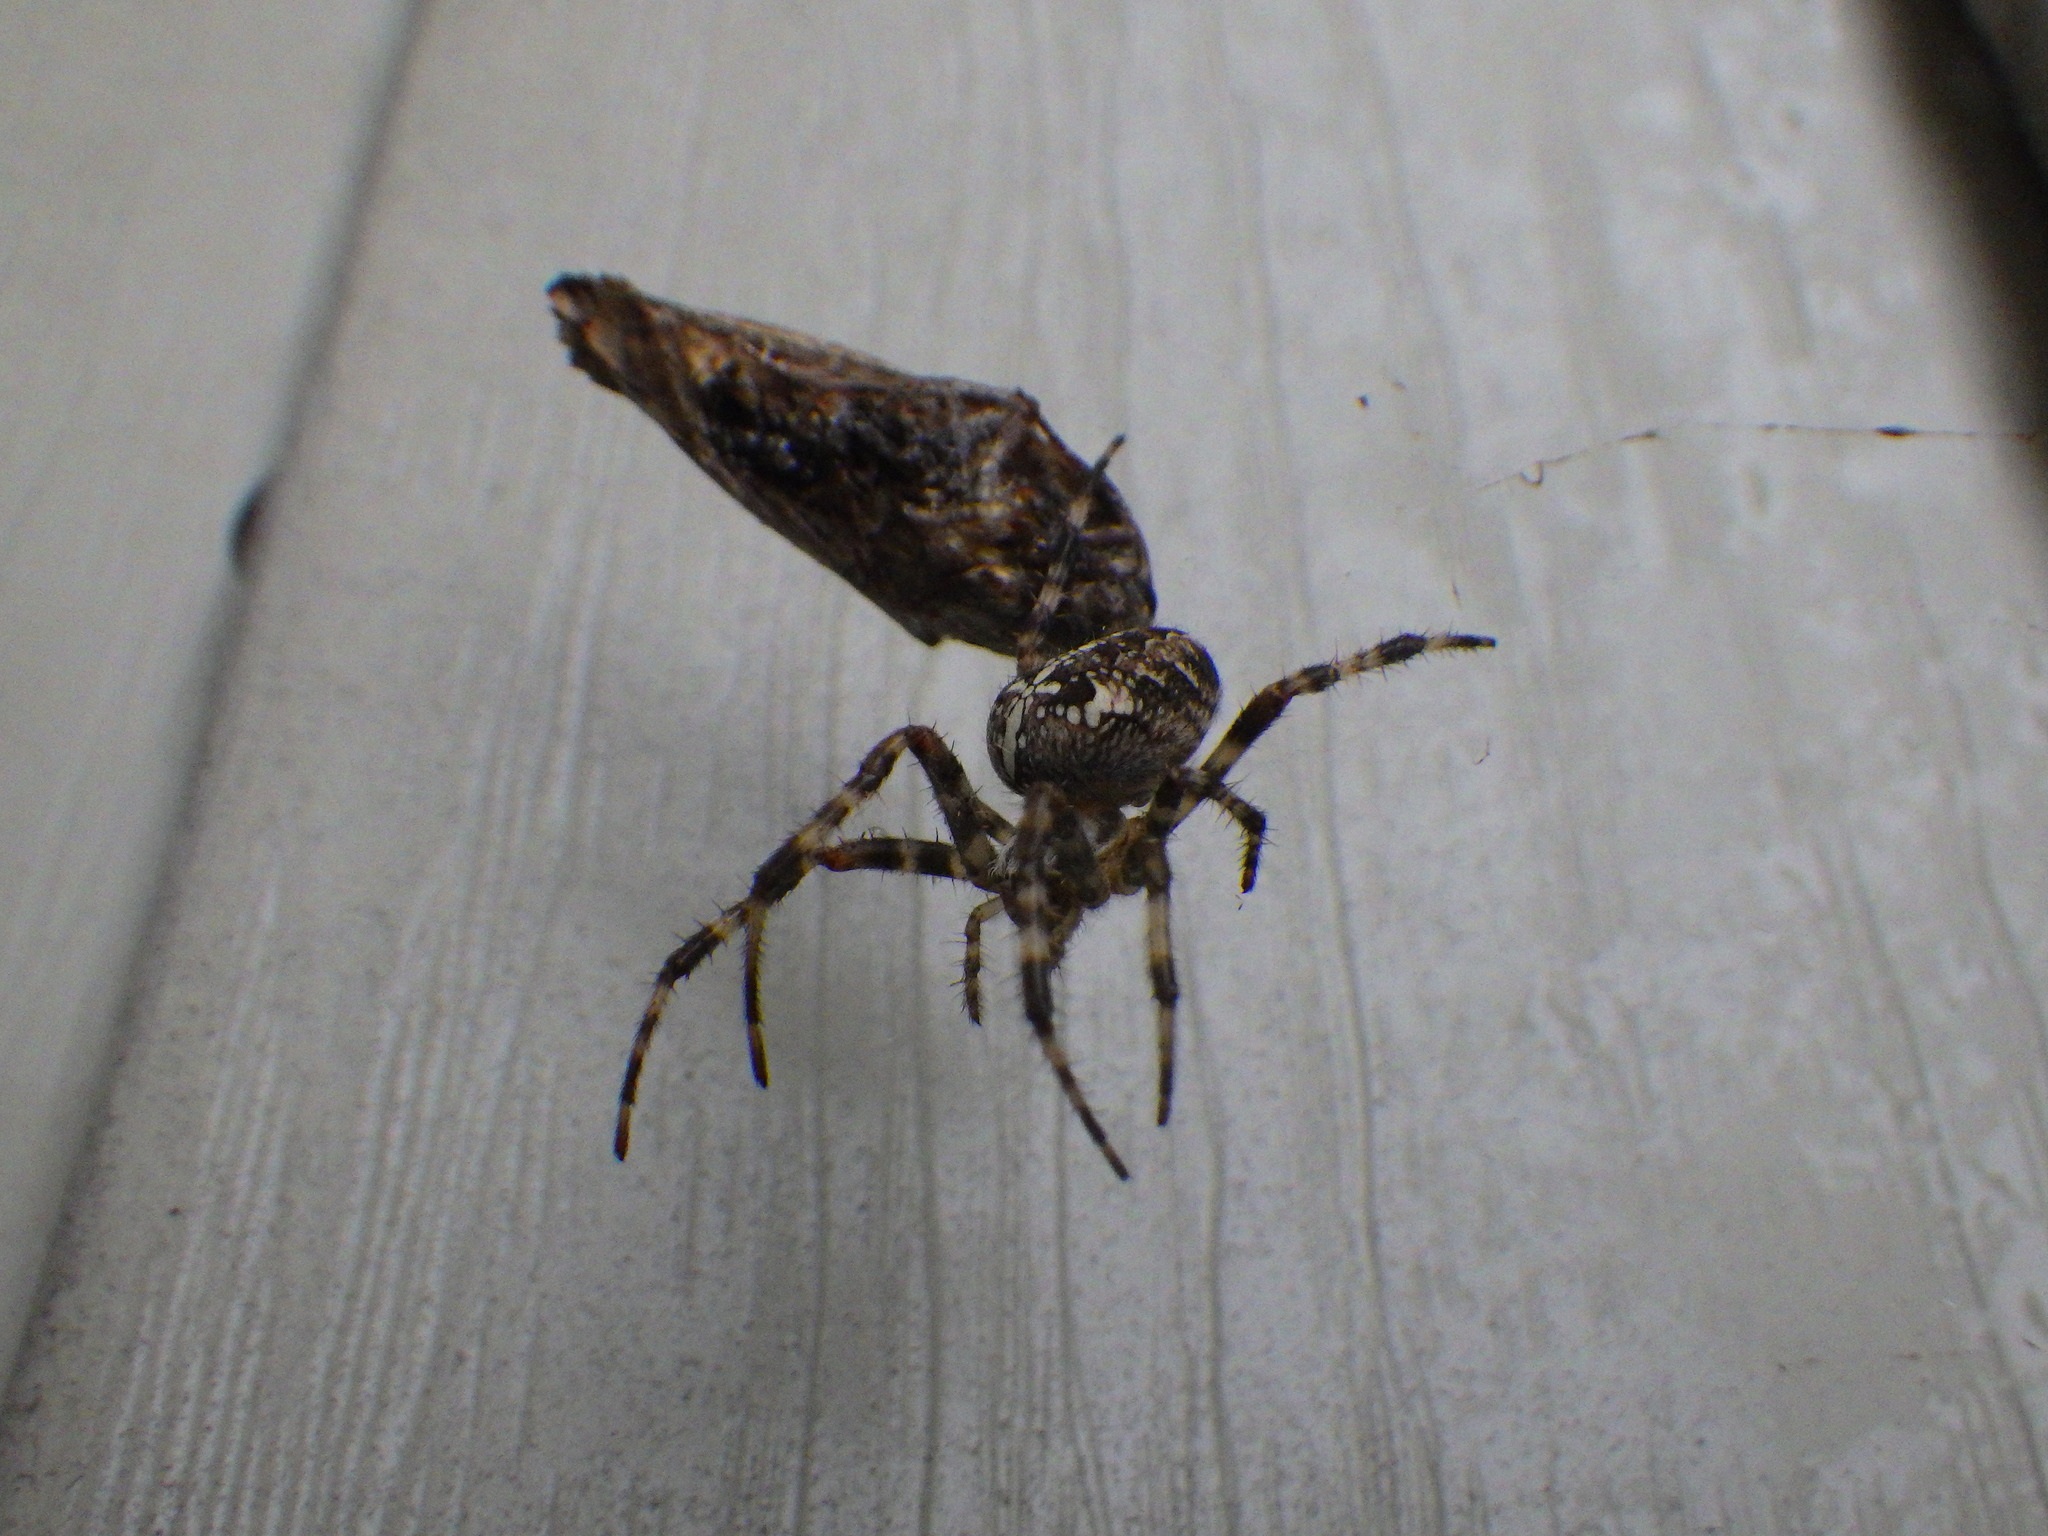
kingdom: Animalia
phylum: Arthropoda
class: Arachnida
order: Araneae
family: Araneidae
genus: Araneus
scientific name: Araneus diadematus
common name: Cross orbweaver
